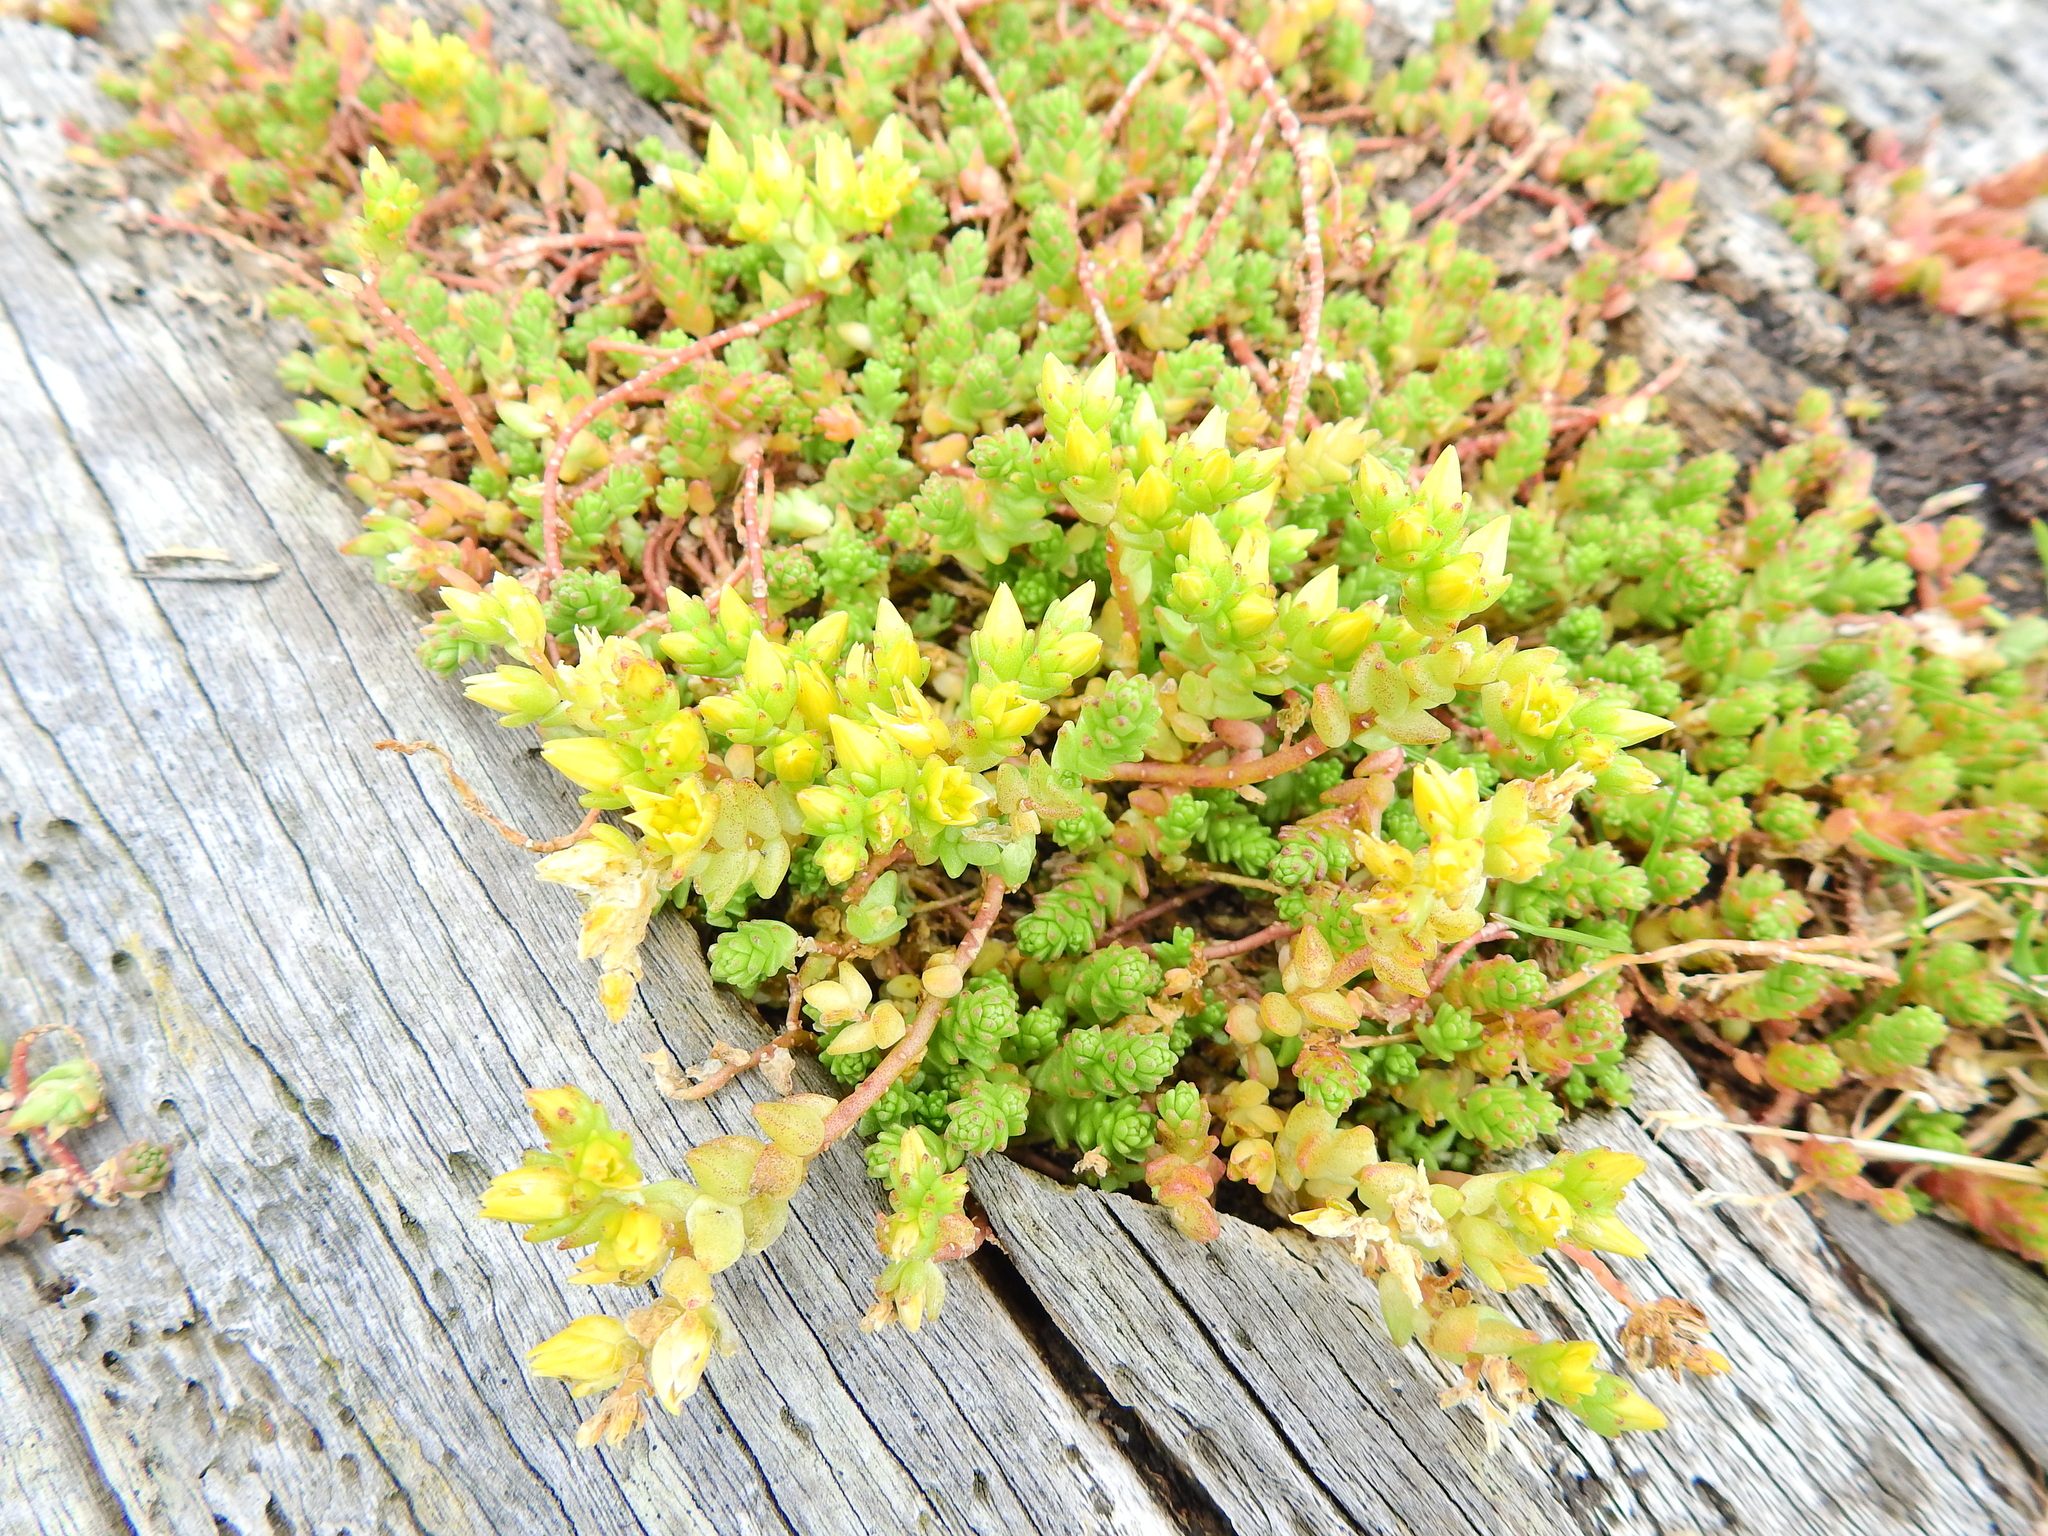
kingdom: Plantae
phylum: Tracheophyta
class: Magnoliopsida
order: Saxifragales
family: Crassulaceae
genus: Sedum
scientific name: Sedum acre
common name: Biting stonecrop
